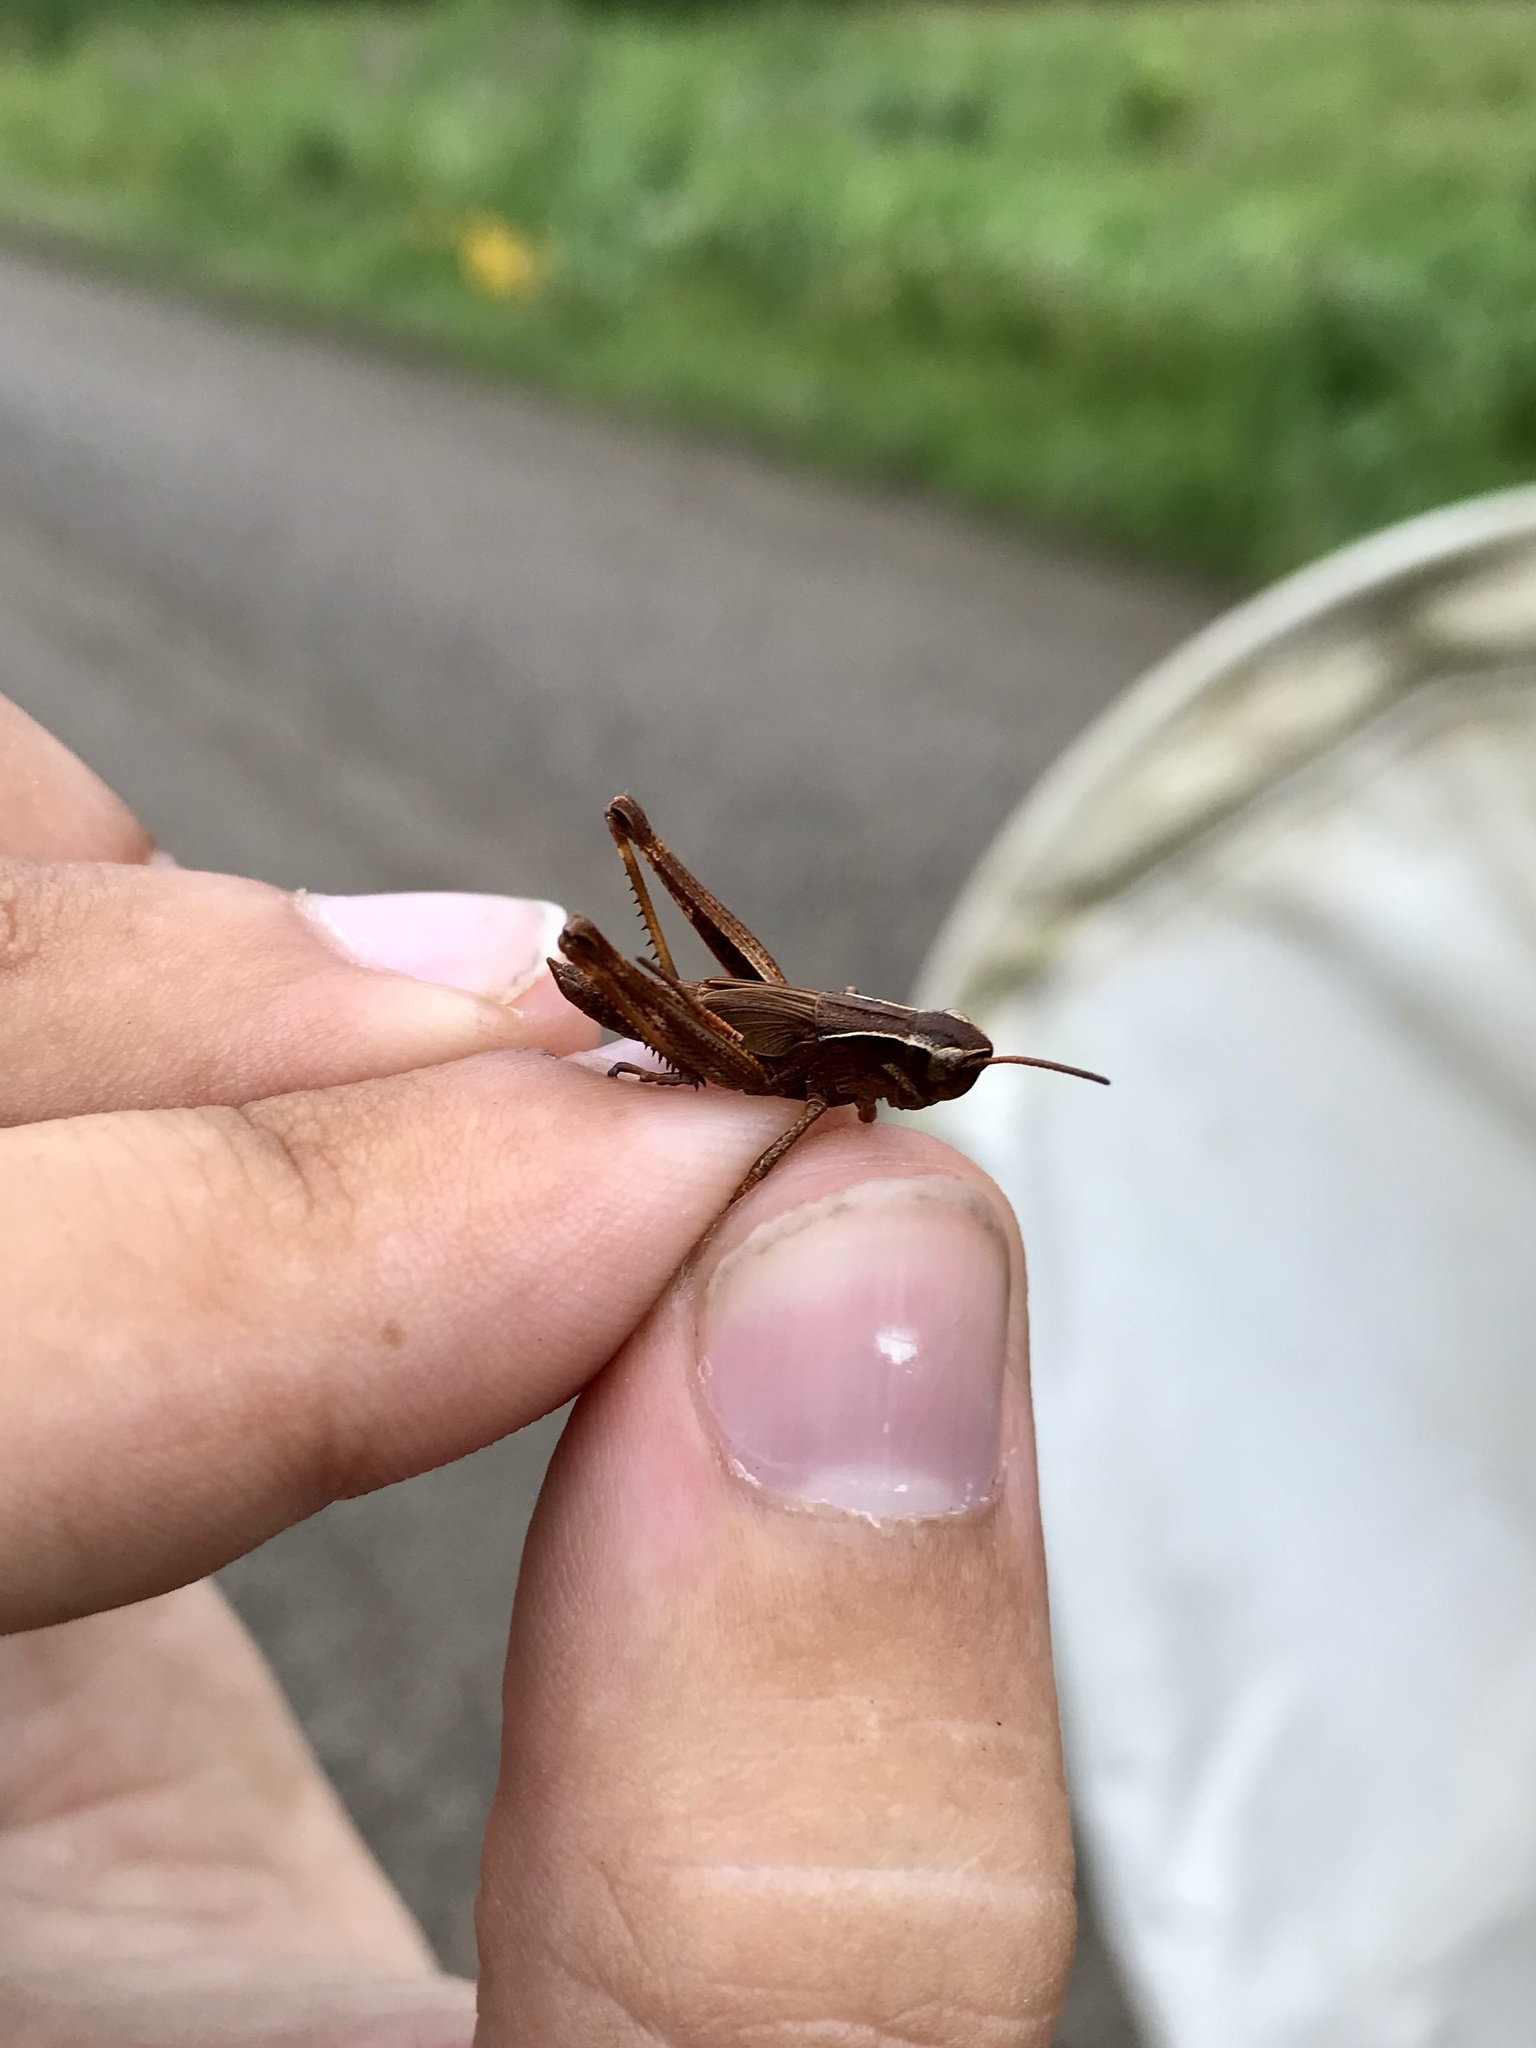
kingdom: Animalia
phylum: Arthropoda
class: Insecta
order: Orthoptera
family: Acrididae
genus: Stethophyma
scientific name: Stethophyma gracile
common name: Graceful sedge grasshopper
